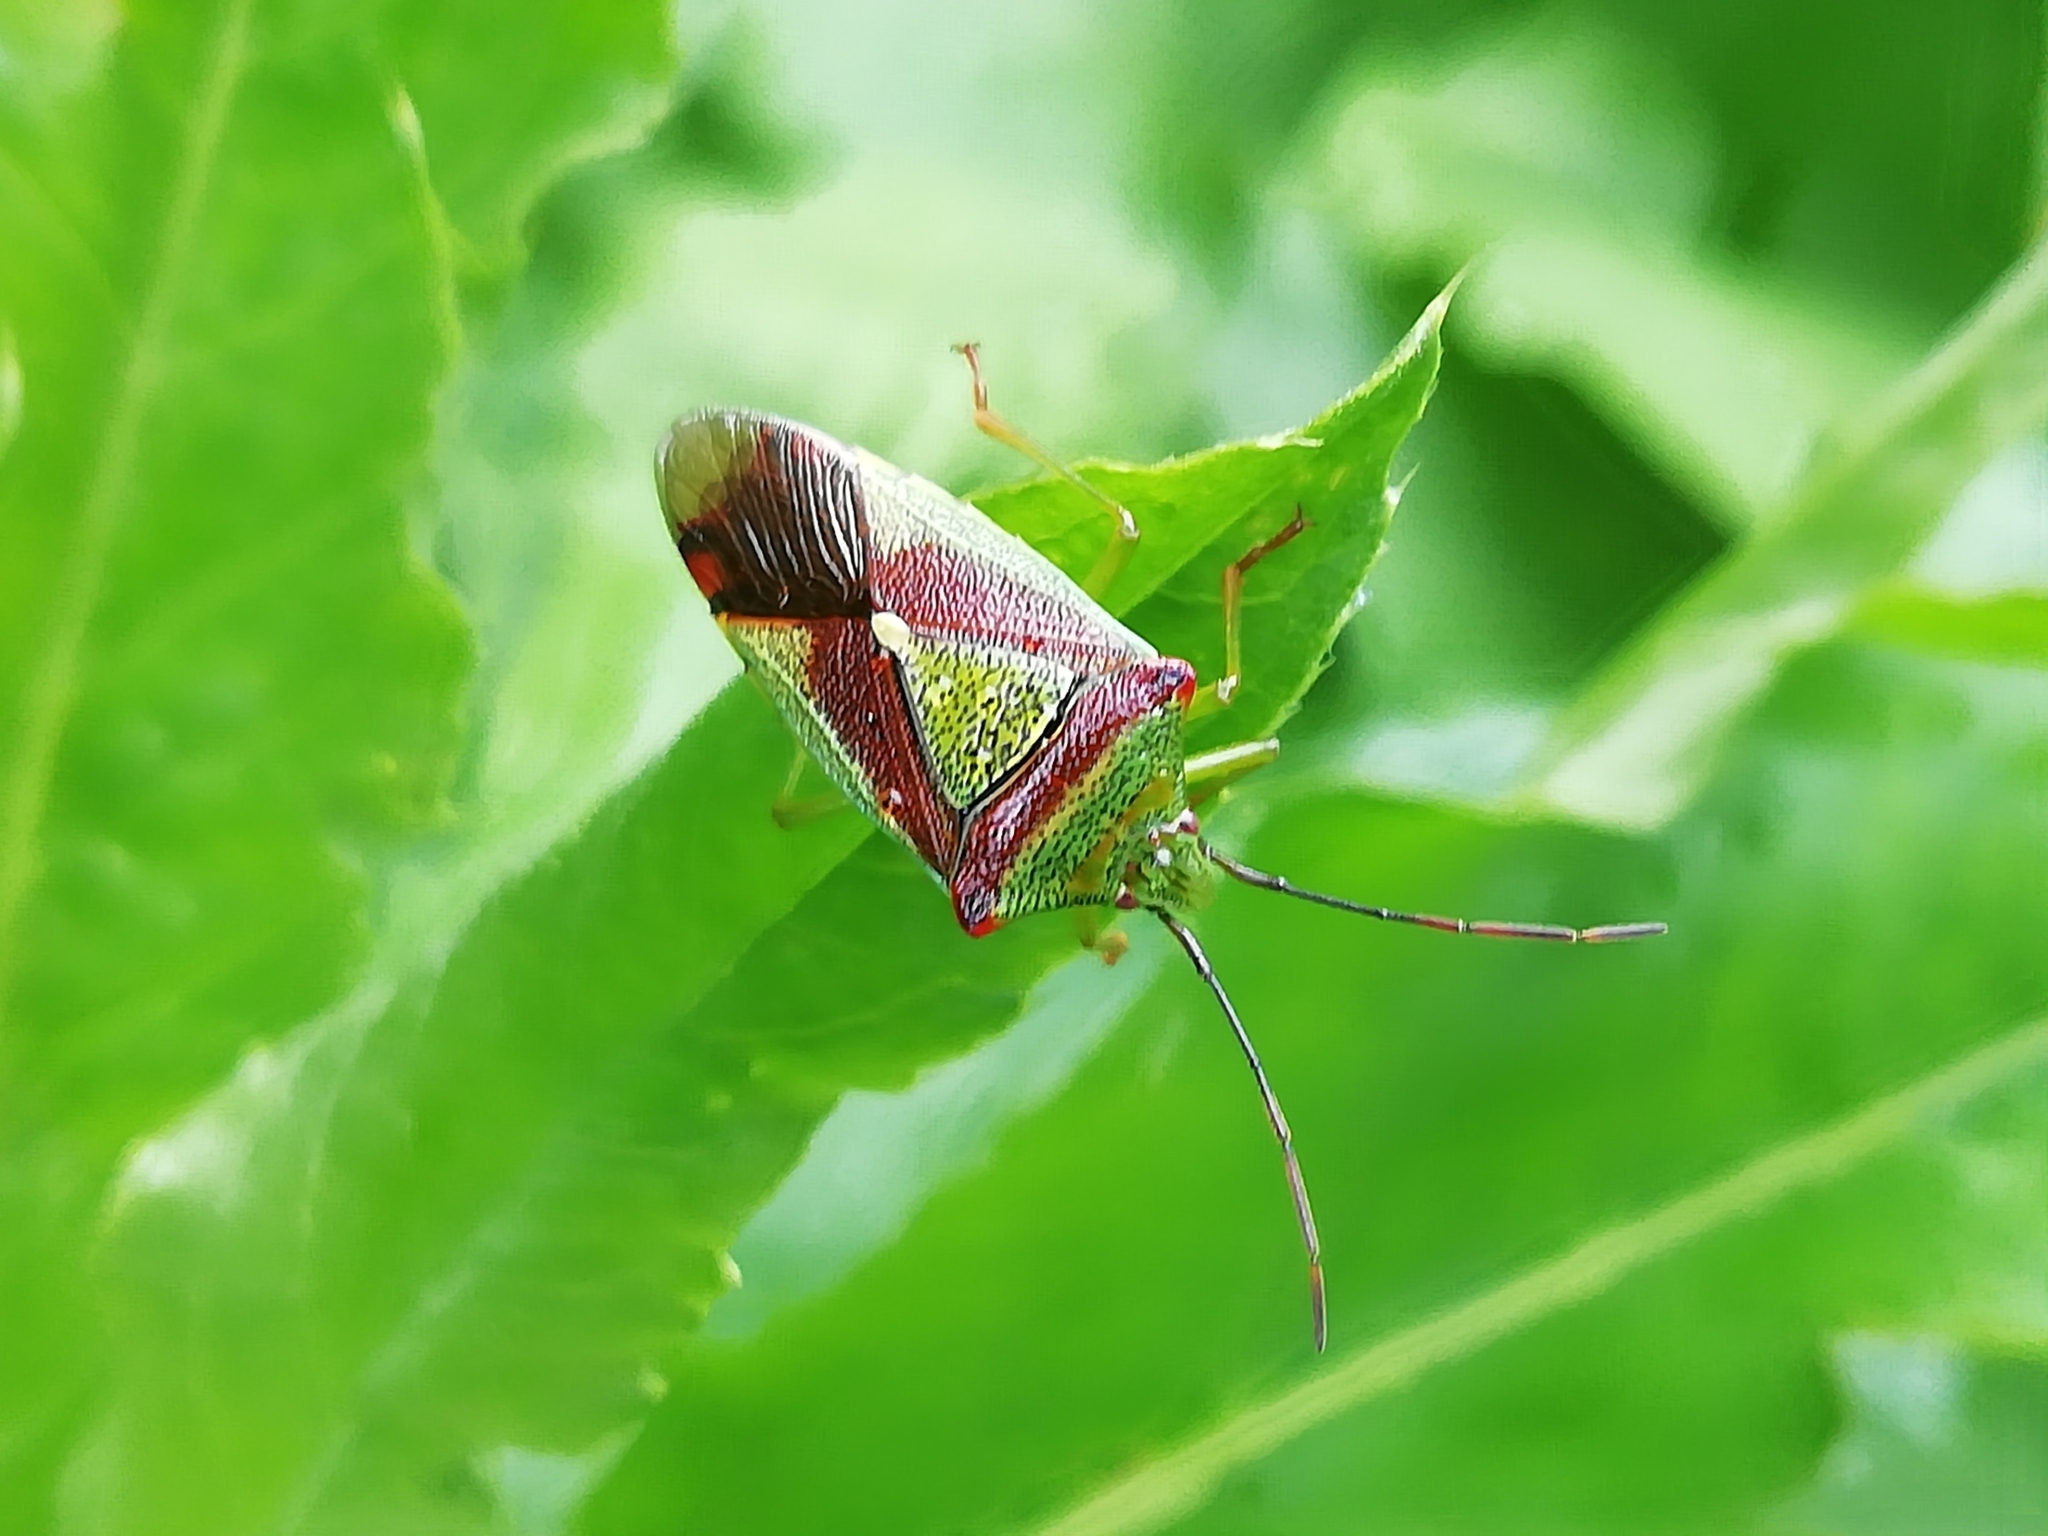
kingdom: Animalia
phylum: Arthropoda
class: Insecta
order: Hemiptera
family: Acanthosomatidae
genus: Acanthosoma
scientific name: Acanthosoma spinicolle
